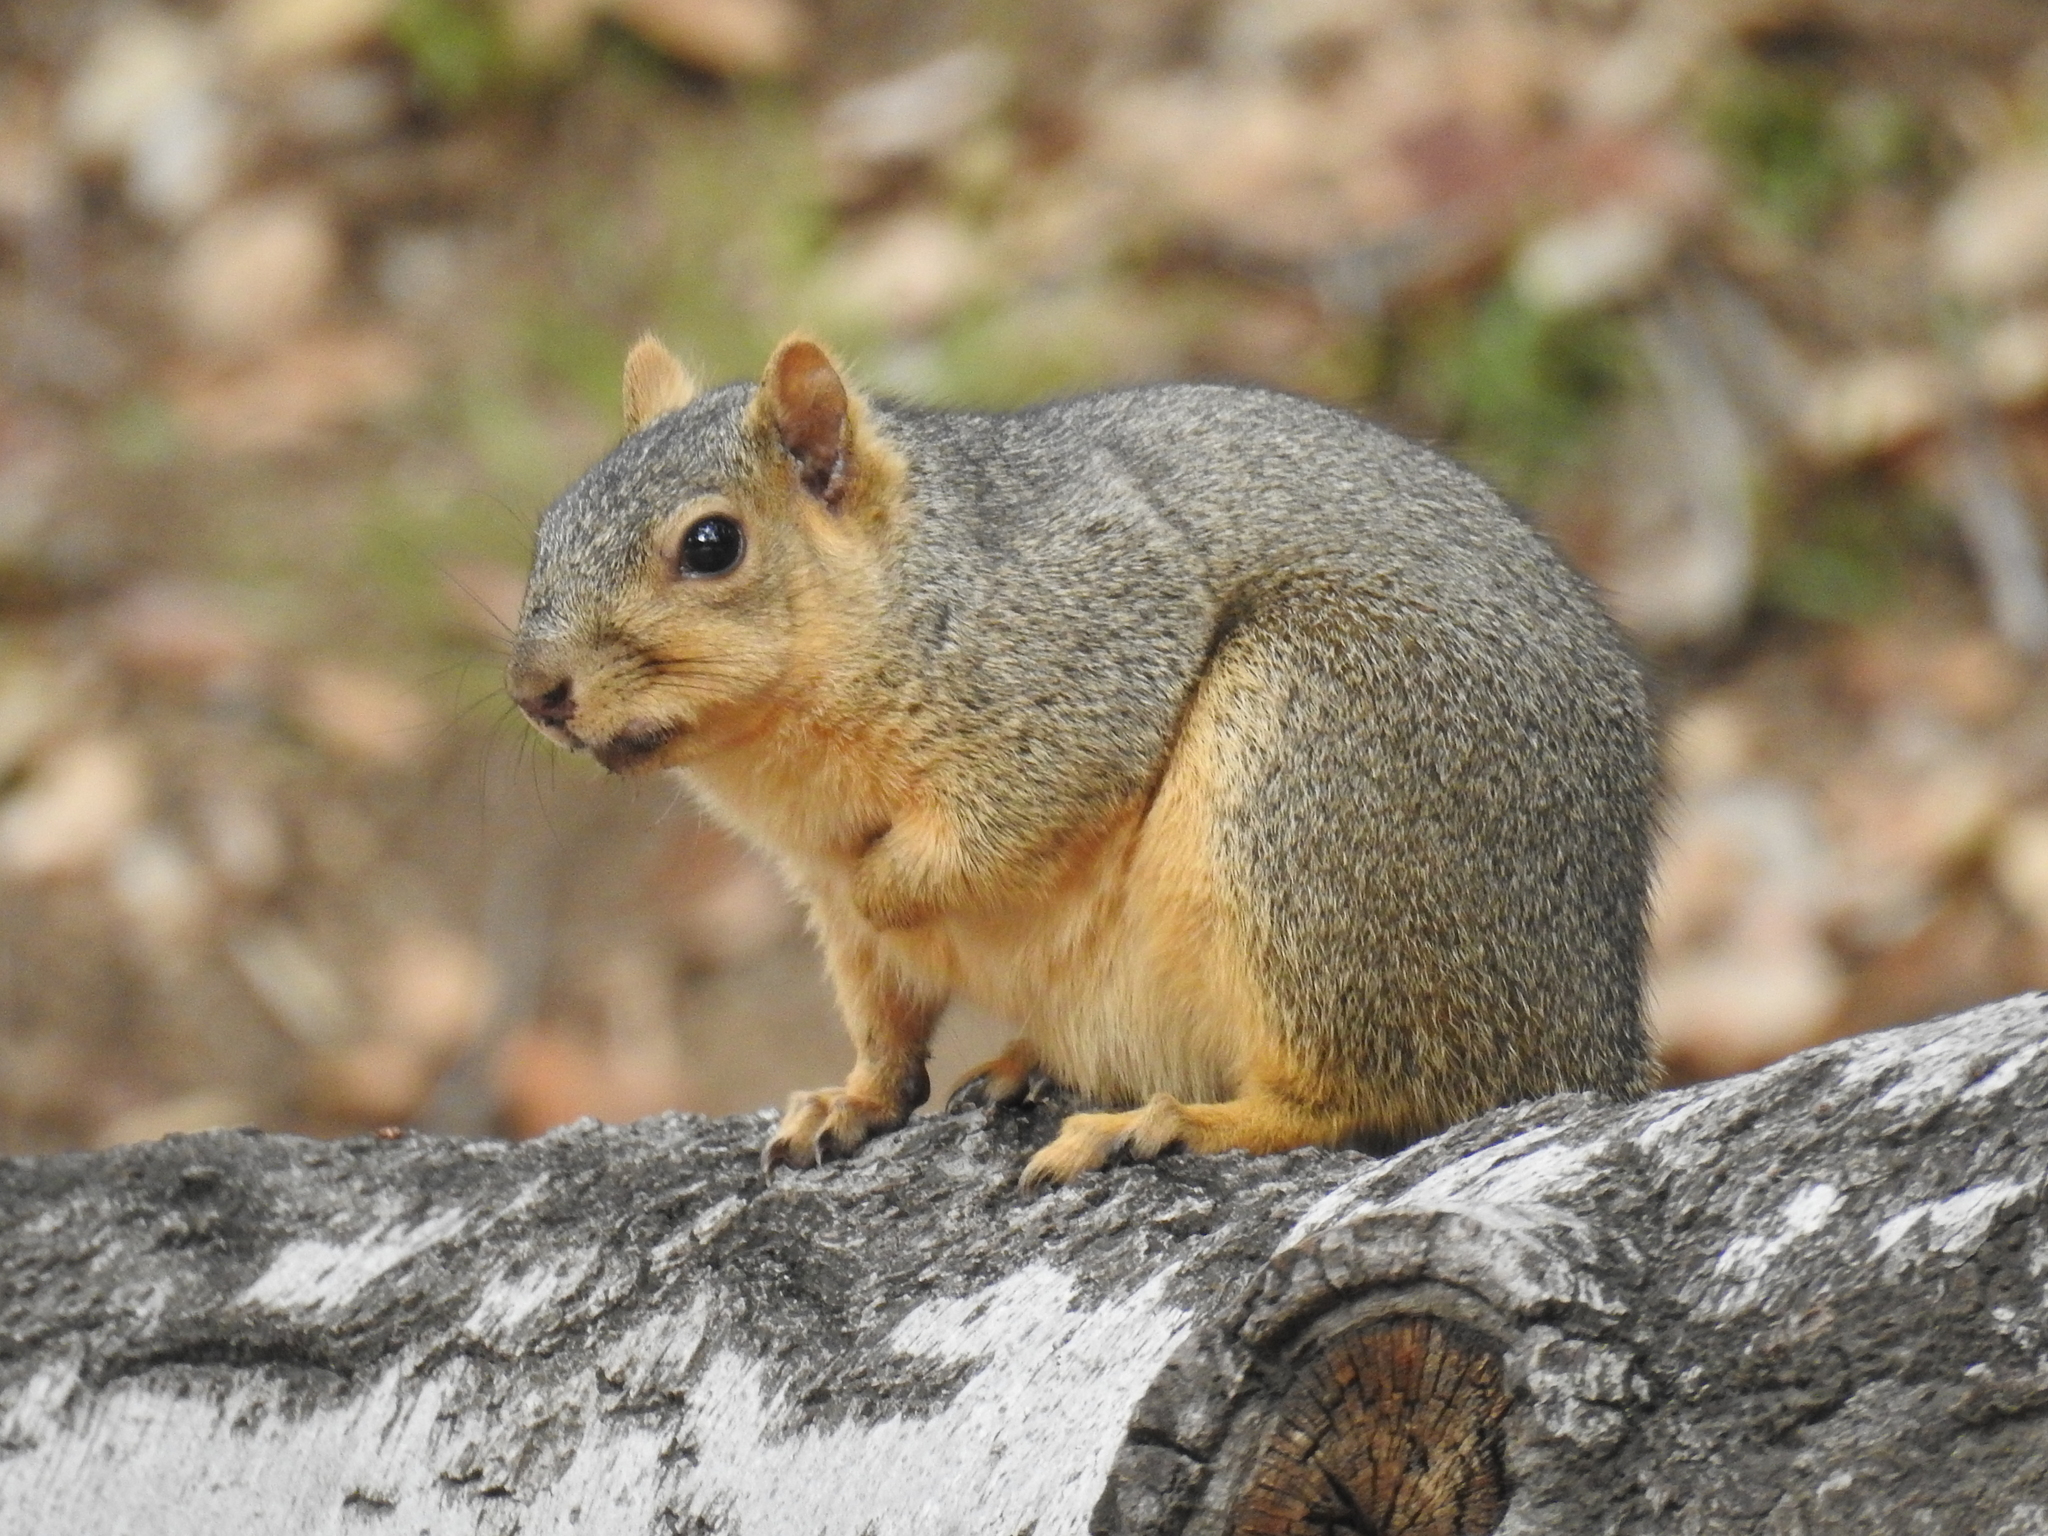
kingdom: Animalia
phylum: Chordata
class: Mammalia
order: Rodentia
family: Sciuridae
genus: Sciurus
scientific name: Sciurus niger
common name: Fox squirrel
